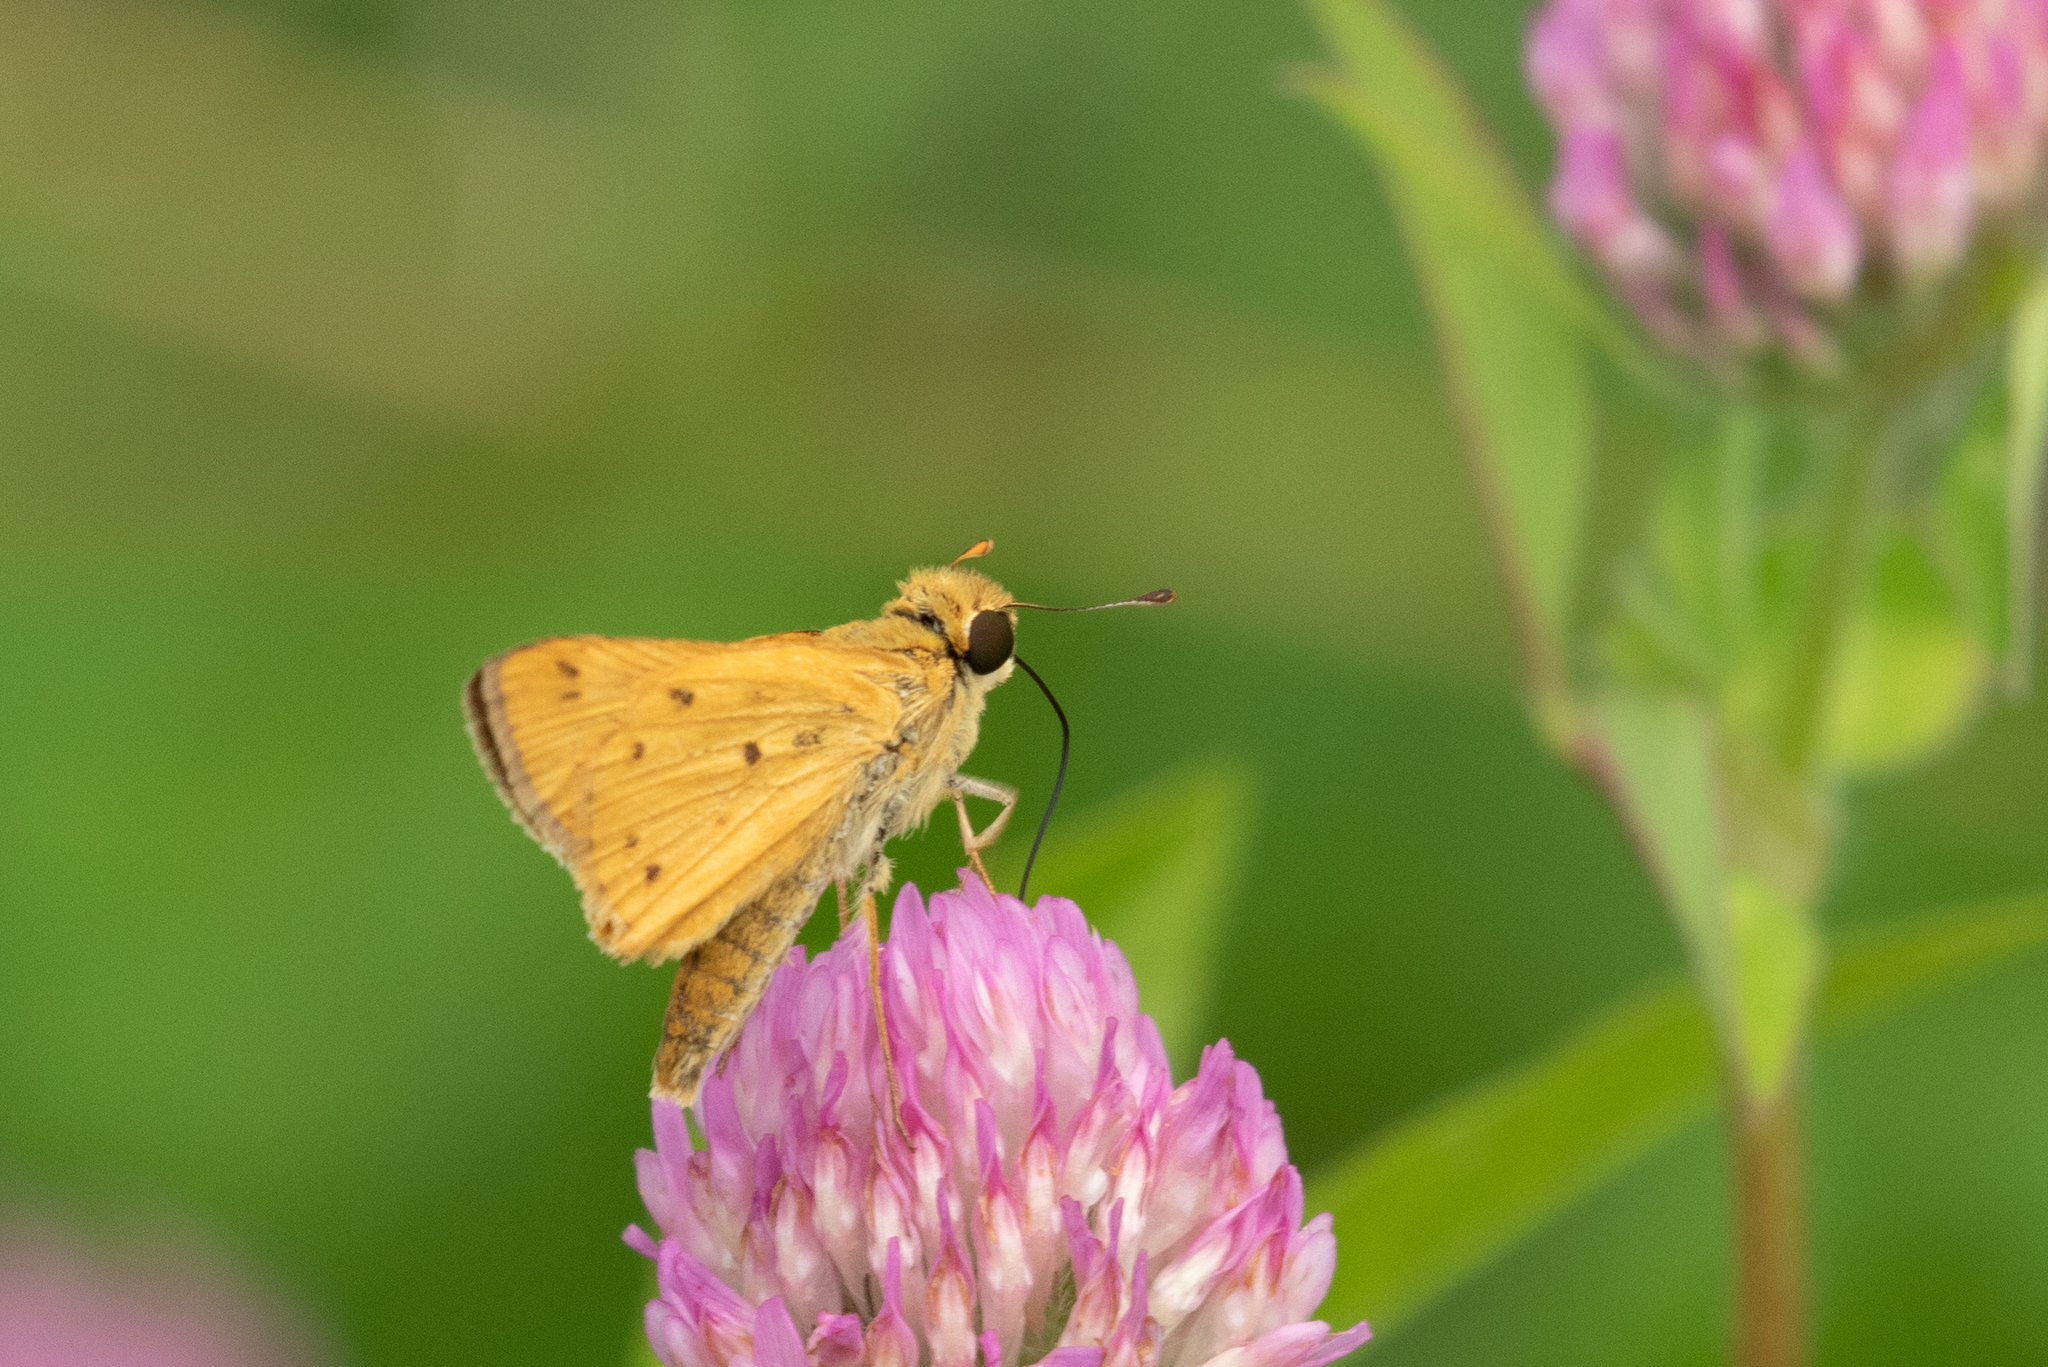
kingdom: Animalia
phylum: Arthropoda
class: Insecta
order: Lepidoptera
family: Hesperiidae
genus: Hylephila
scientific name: Hylephila phyleus
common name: Fiery skipper
